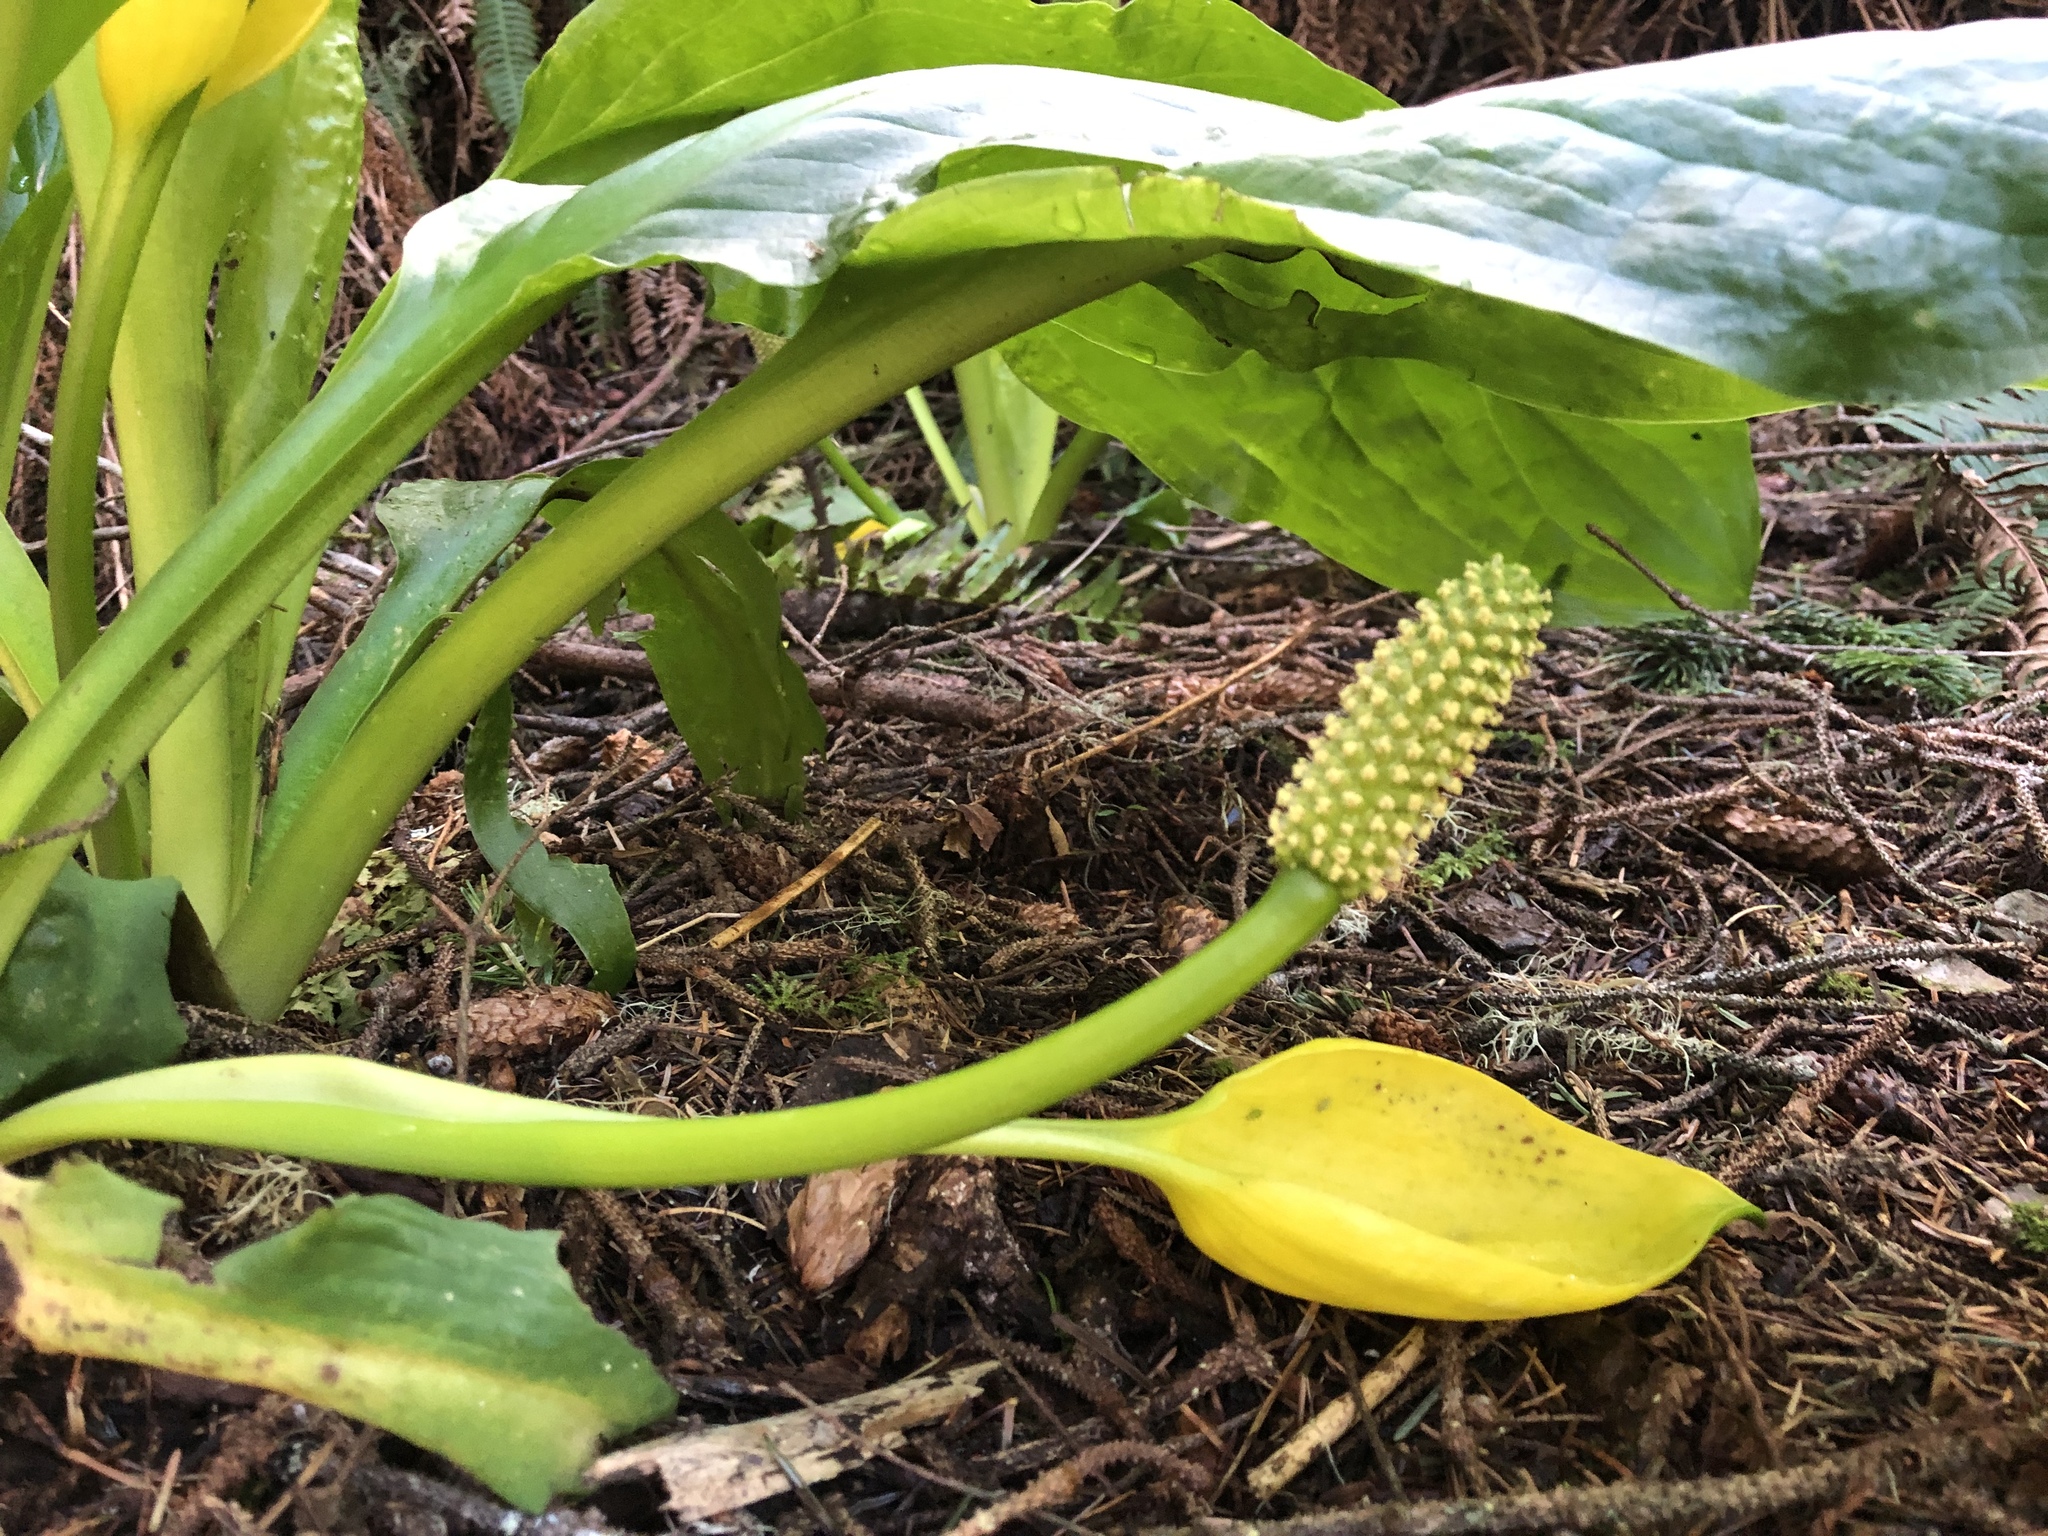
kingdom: Plantae
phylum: Tracheophyta
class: Liliopsida
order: Alismatales
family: Araceae
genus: Lysichiton
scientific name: Lysichiton americanus
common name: American skunk cabbage
